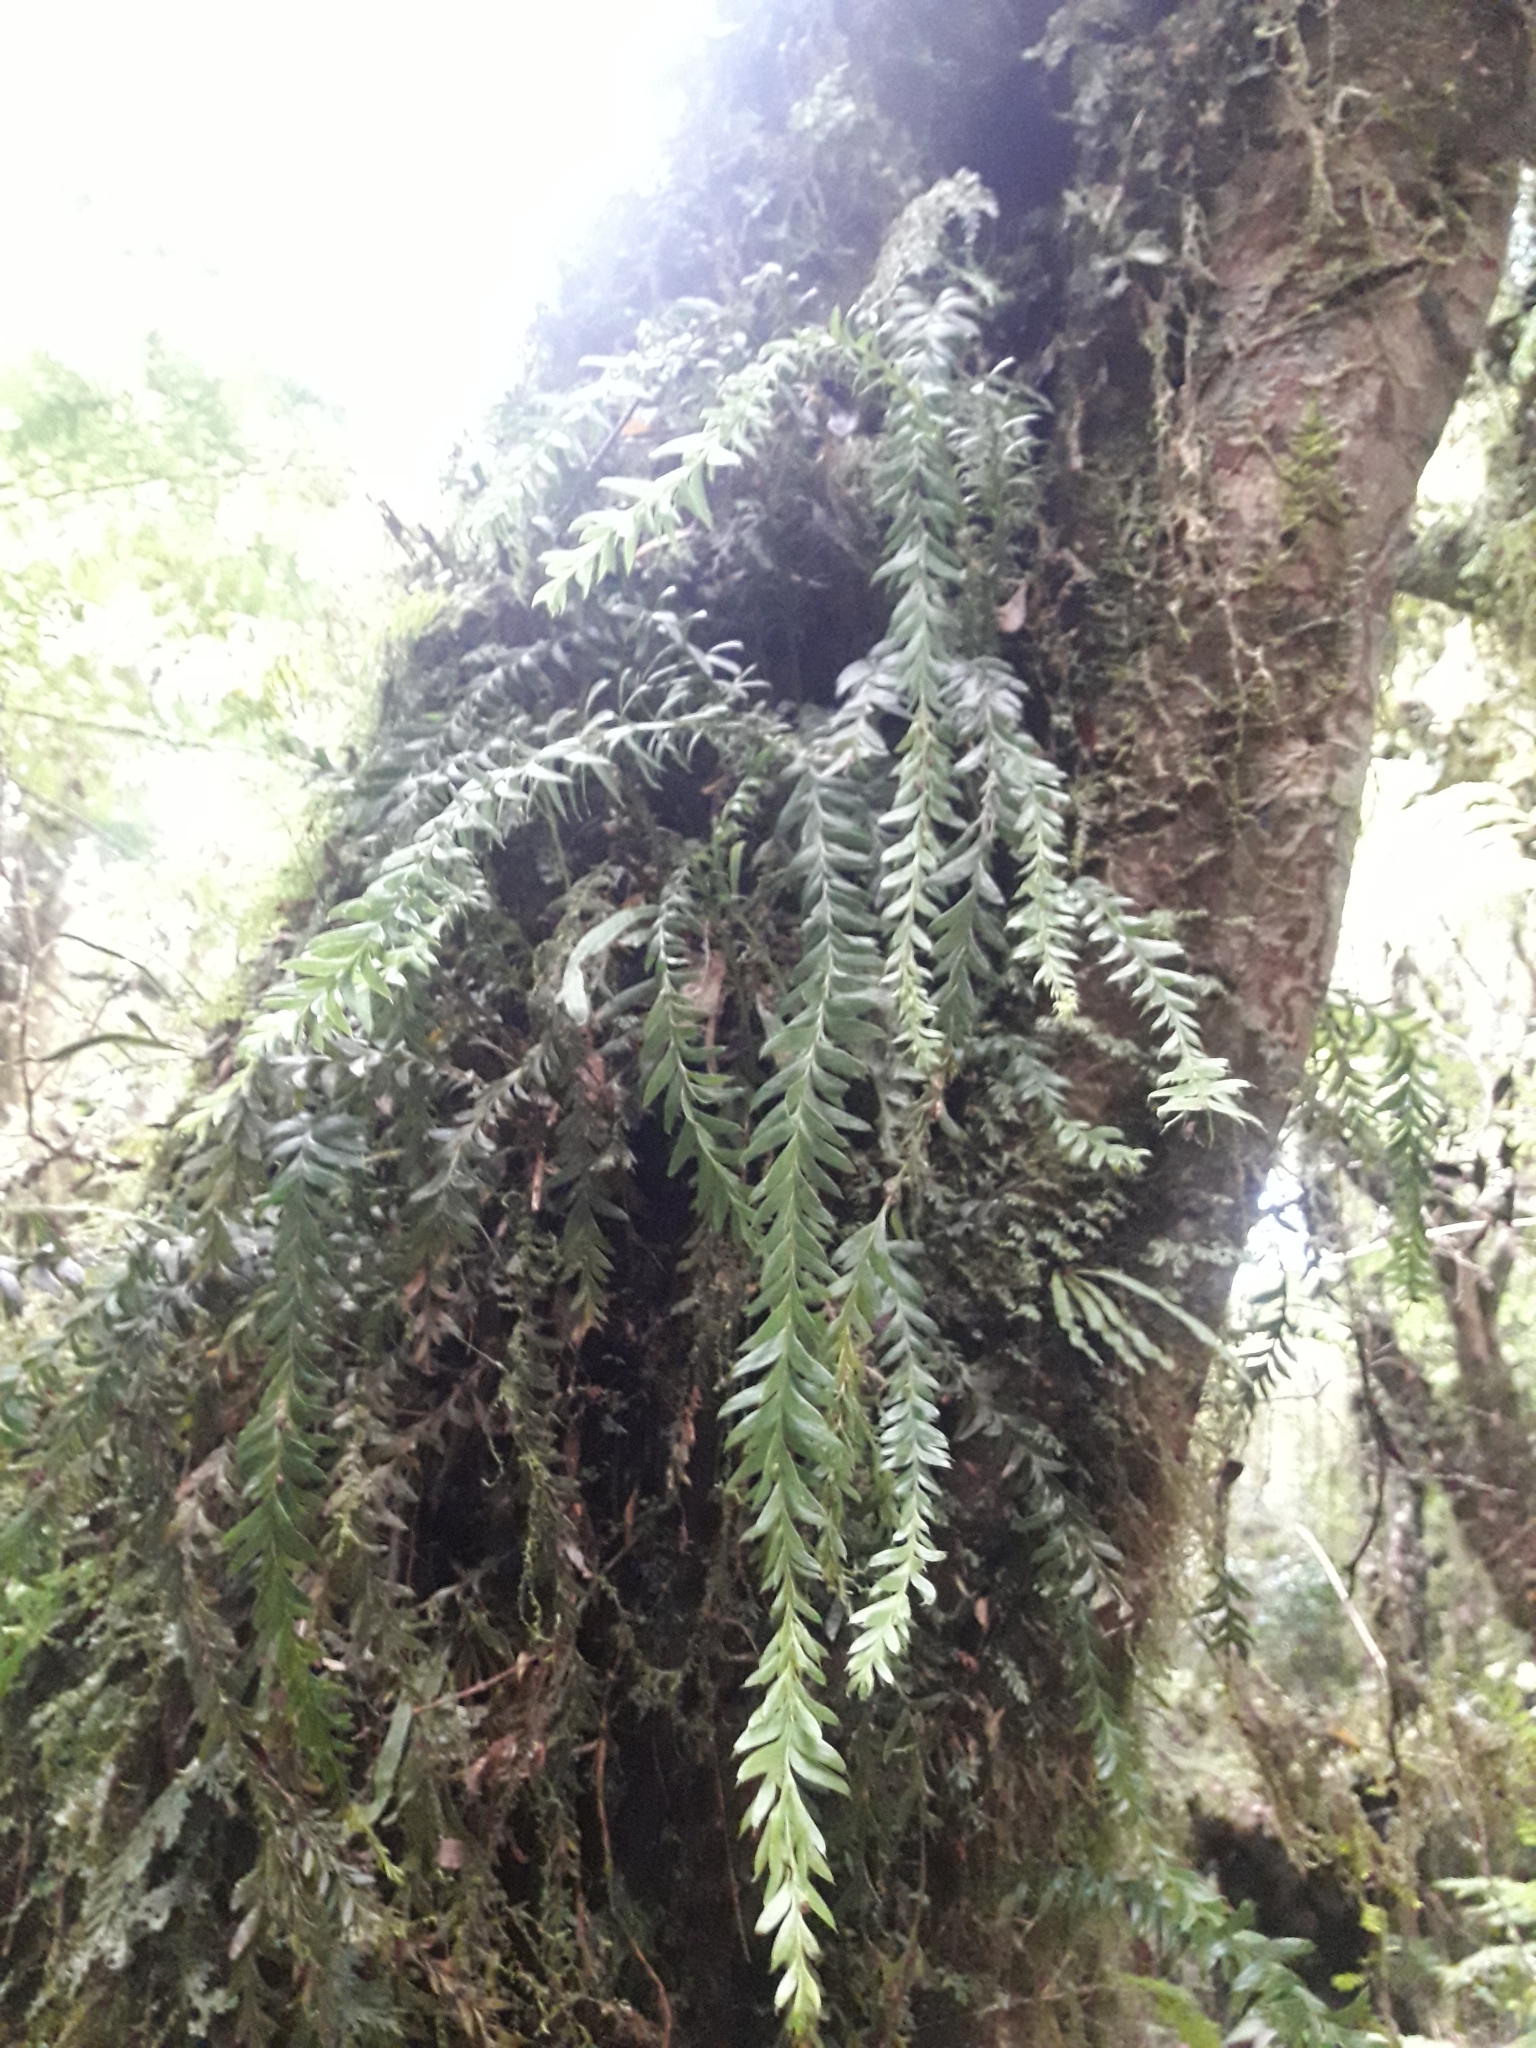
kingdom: Plantae
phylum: Tracheophyta
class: Polypodiopsida
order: Psilotales
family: Psilotaceae
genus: Tmesipteris
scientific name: Tmesipteris tannensis
